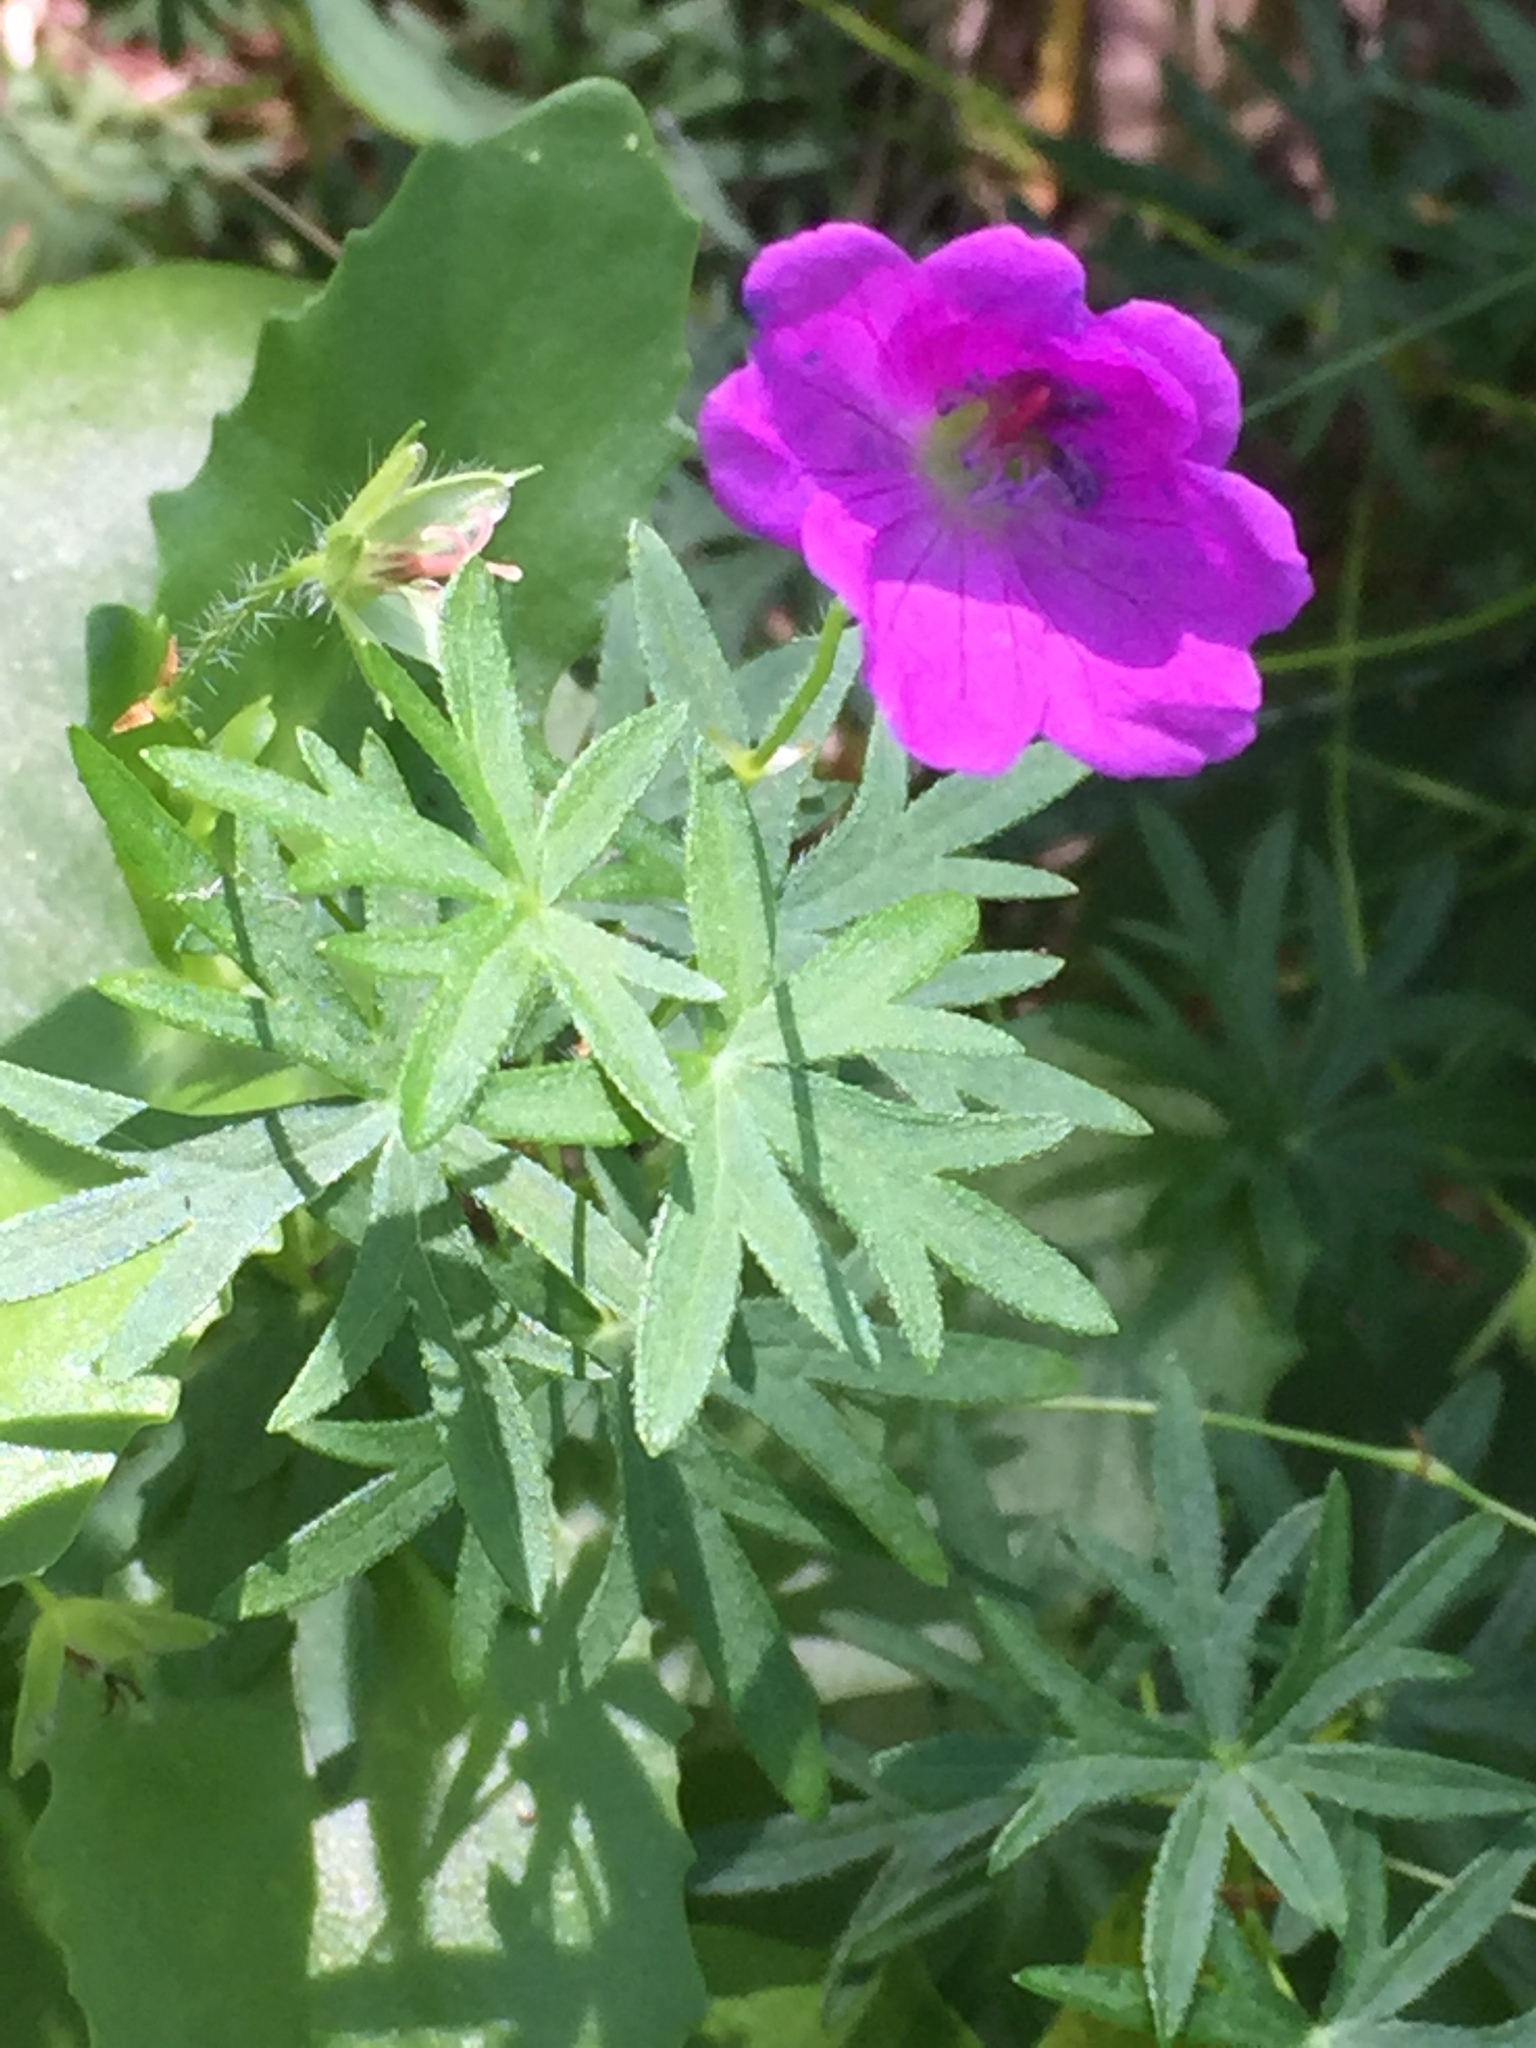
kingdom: Plantae
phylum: Tracheophyta
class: Magnoliopsida
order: Geraniales
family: Geraniaceae
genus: Geranium
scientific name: Geranium sanguineum
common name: Bloody crane's-bill
